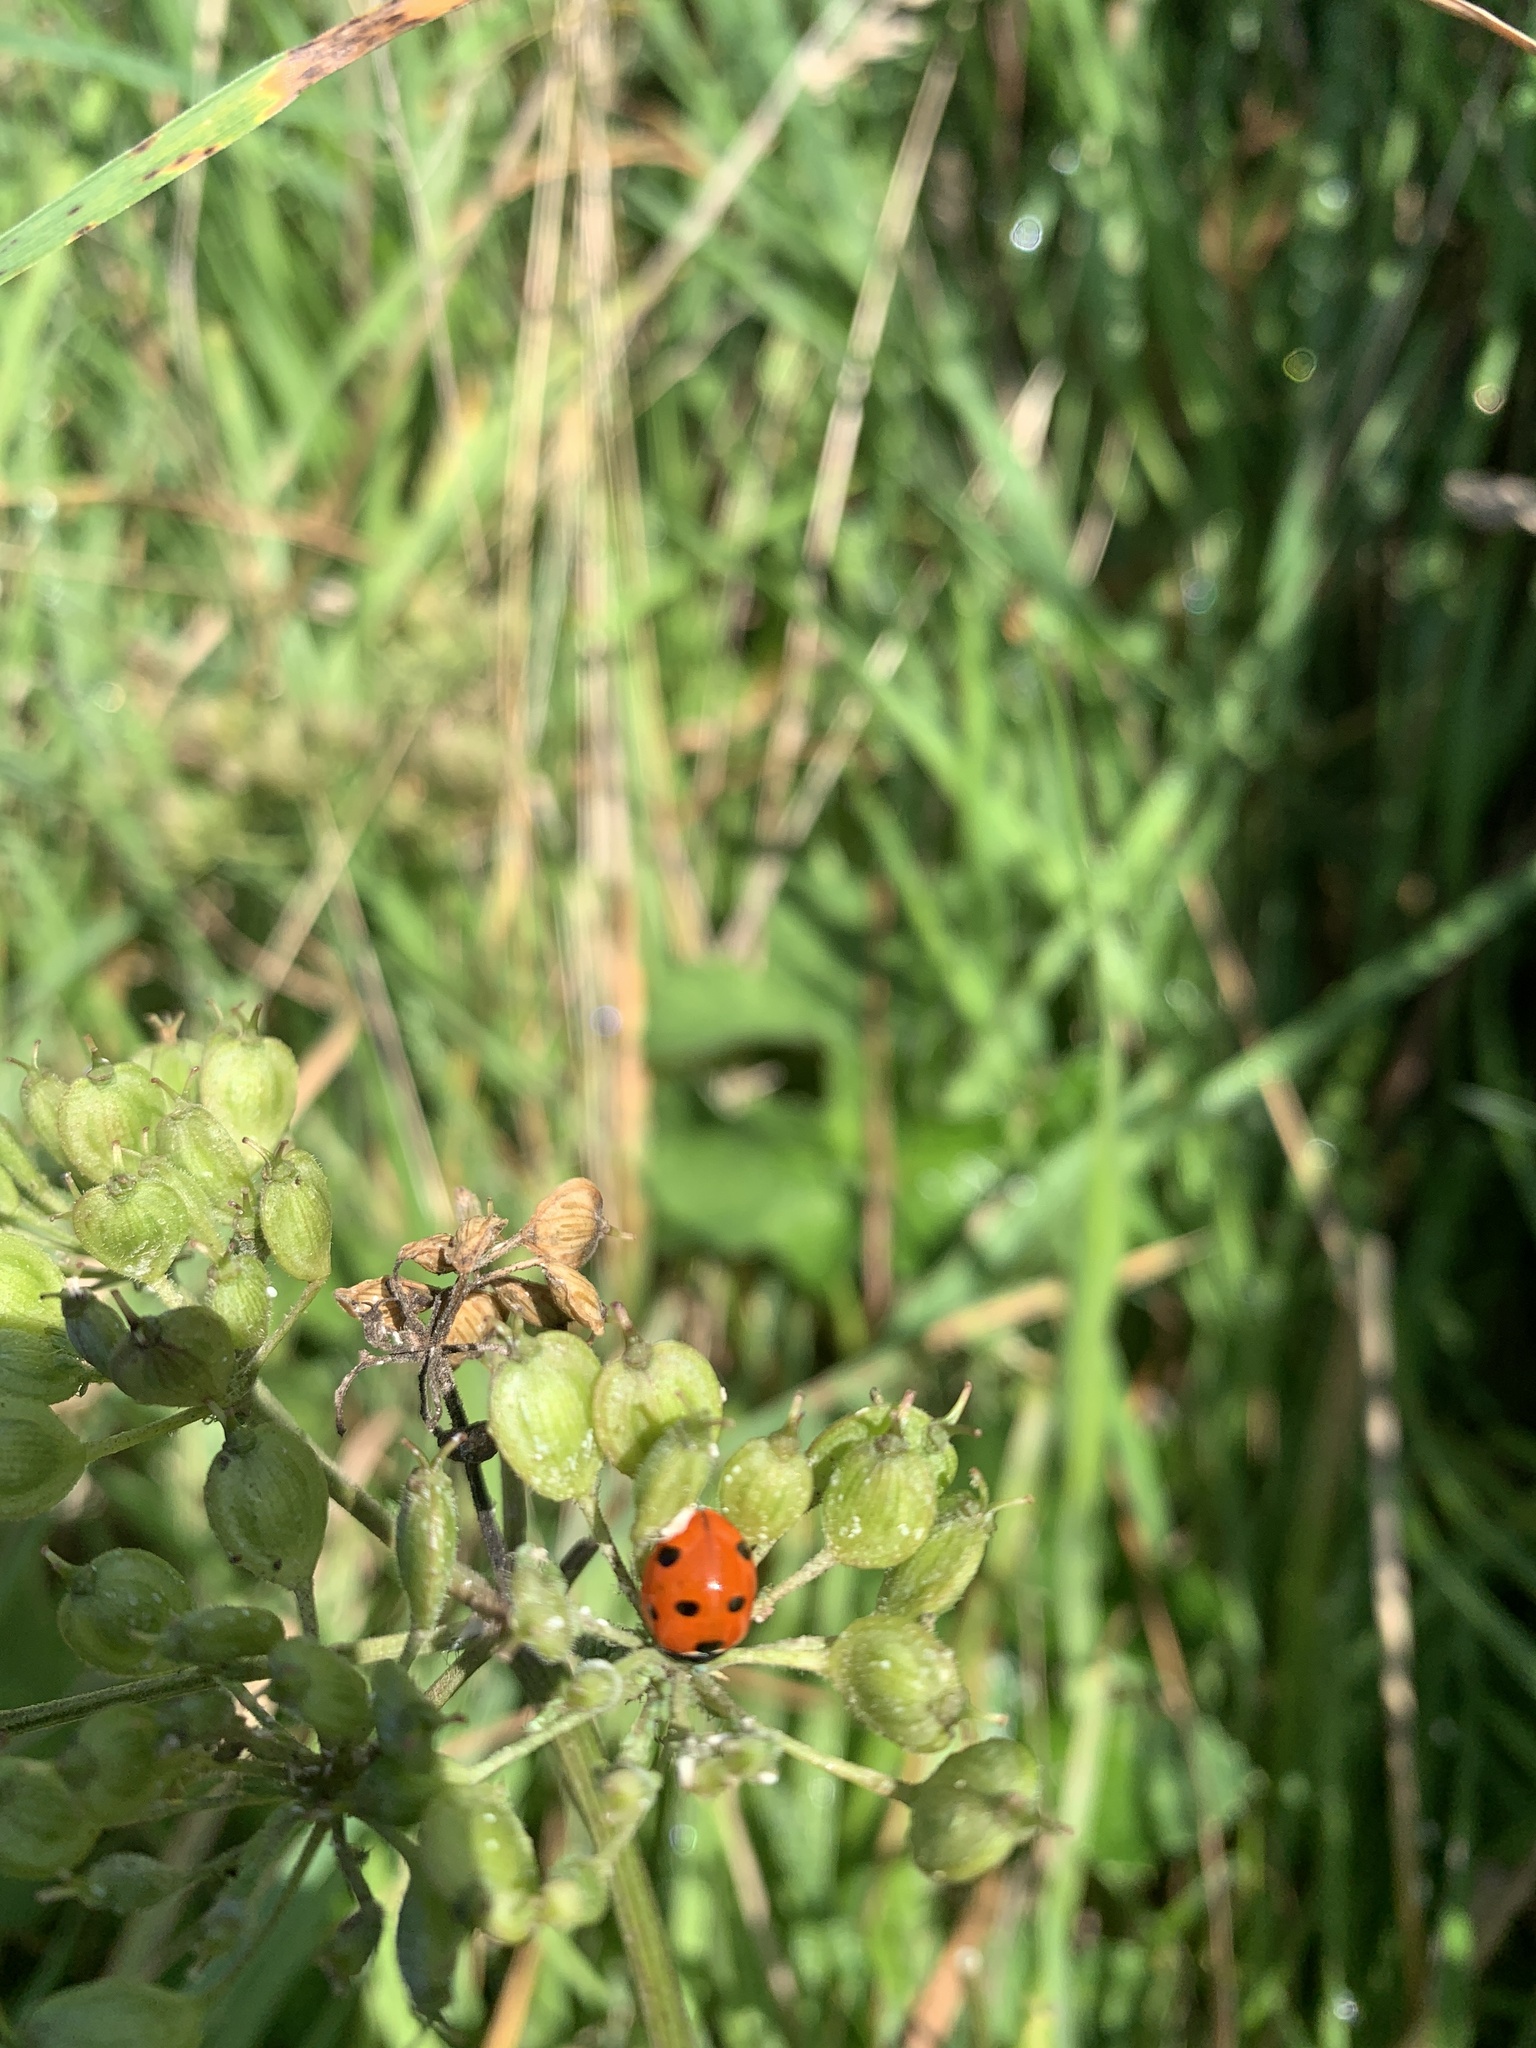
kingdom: Animalia
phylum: Arthropoda
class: Insecta
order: Coleoptera
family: Coccinellidae
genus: Coccinella
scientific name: Coccinella septempunctata
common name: Sevenspotted lady beetle
